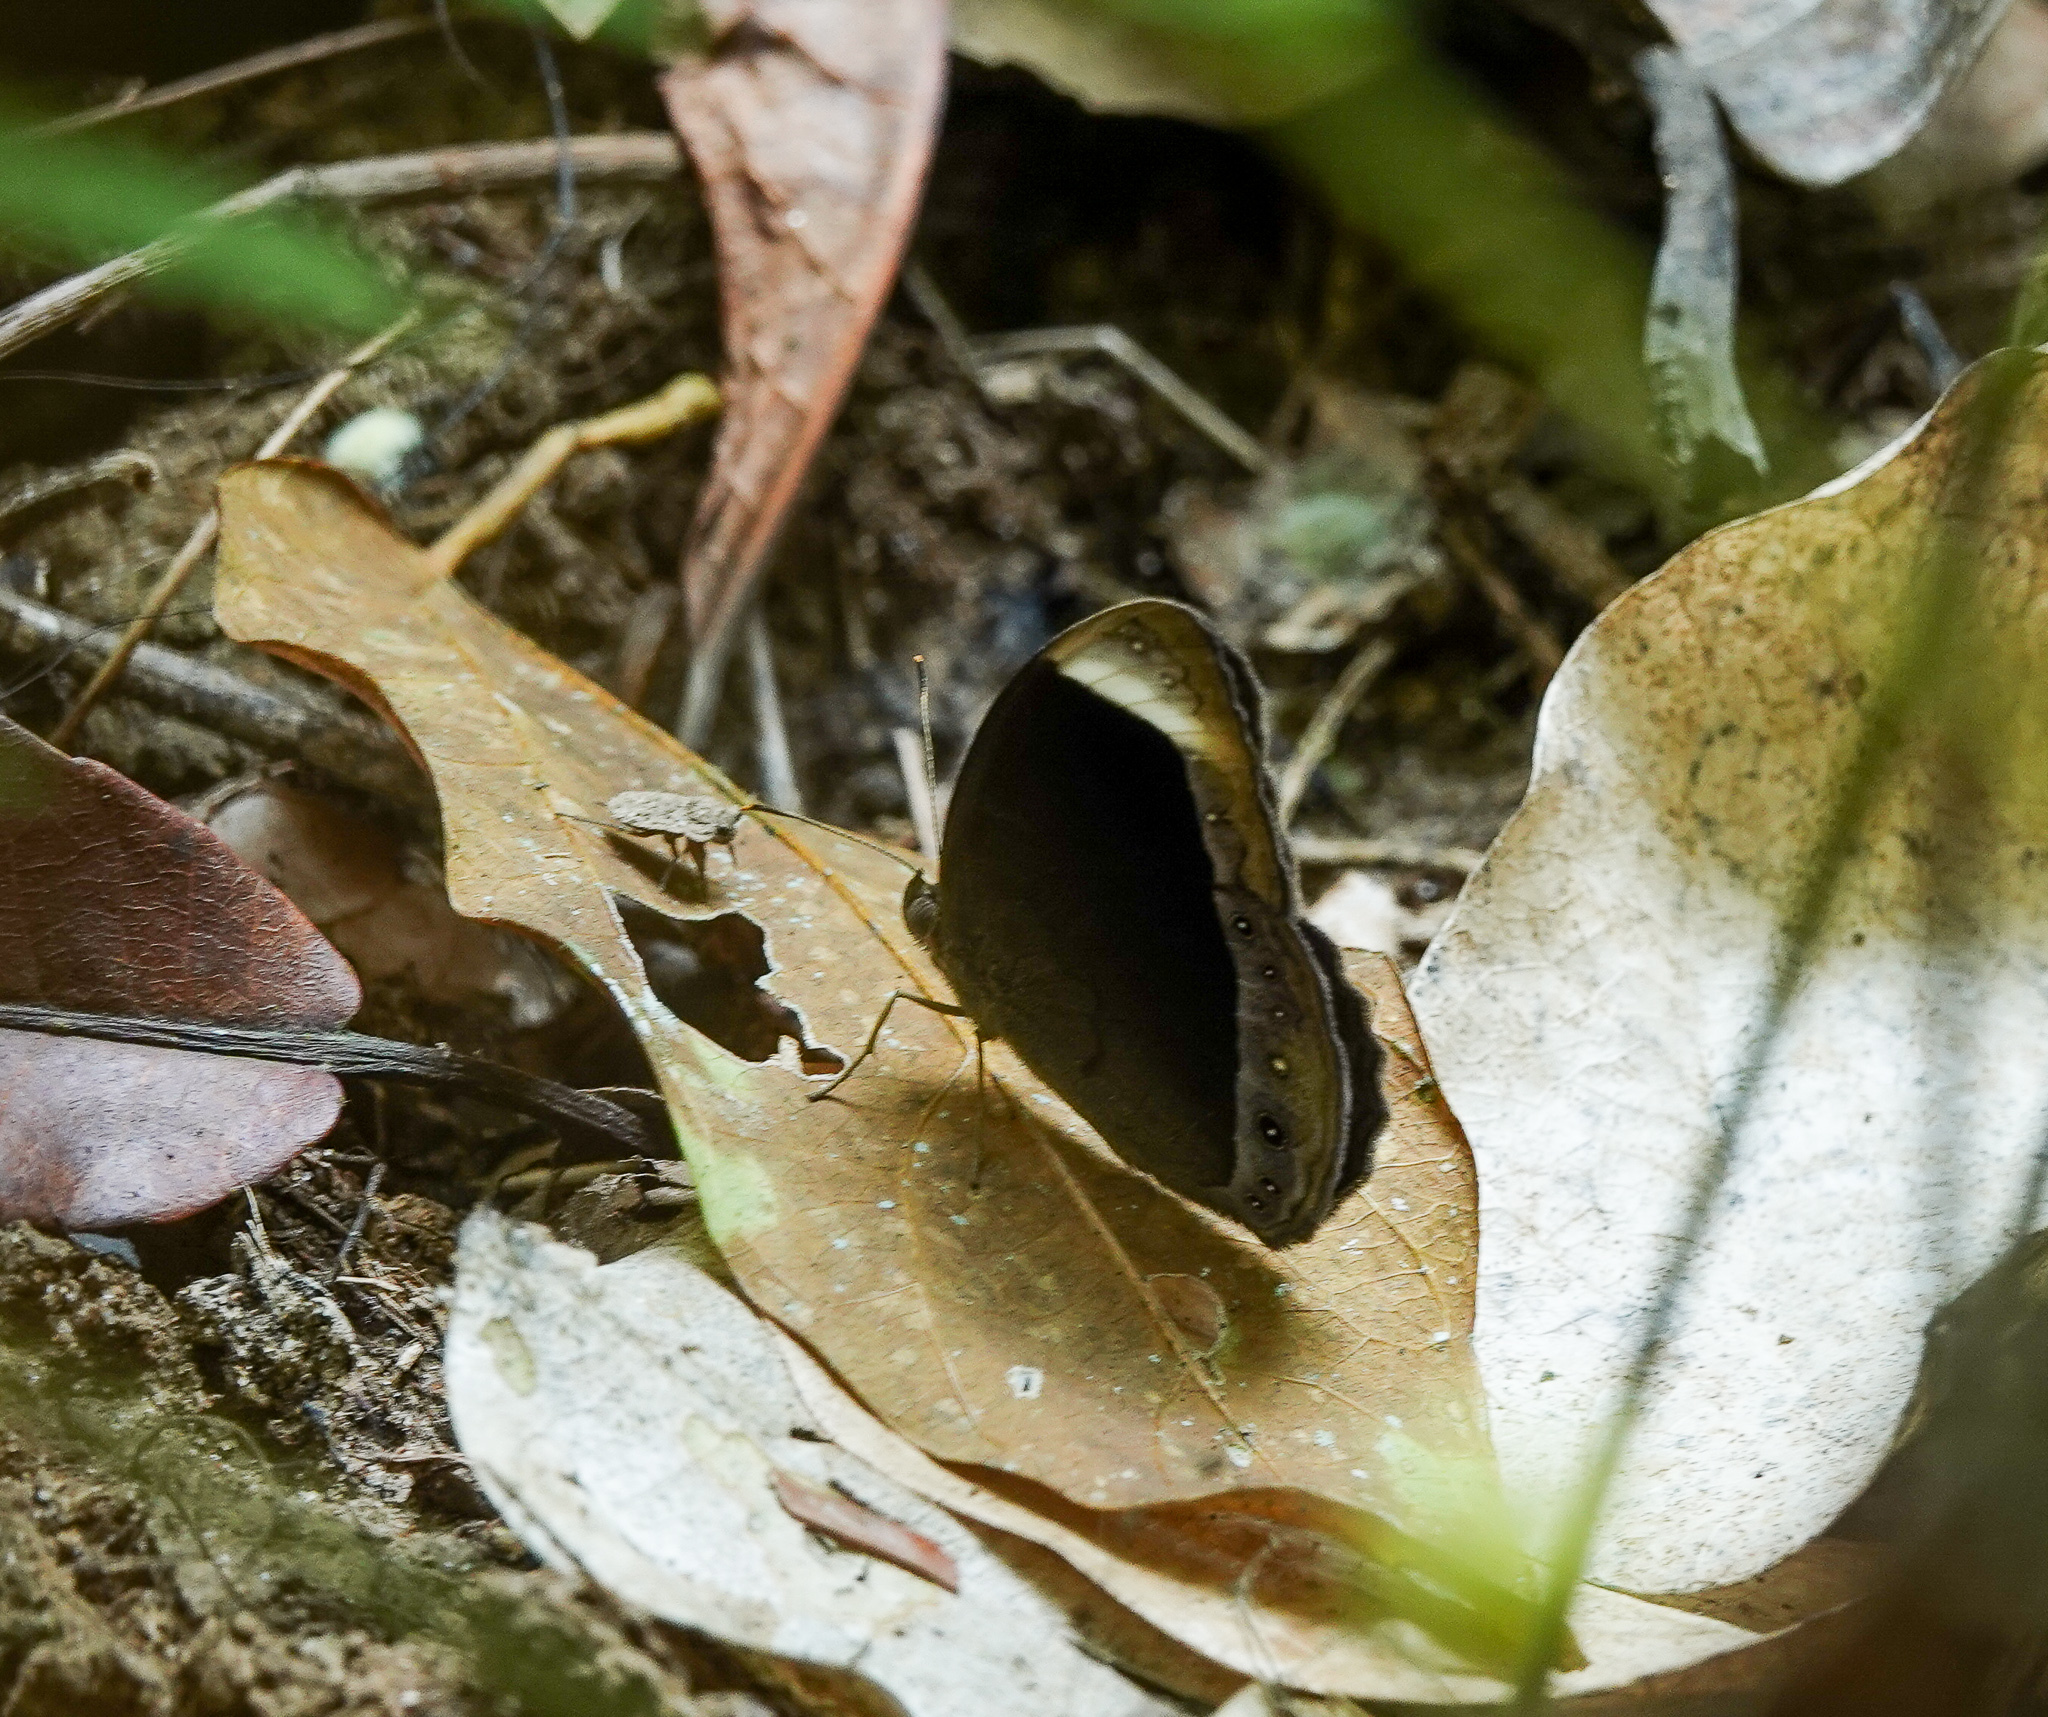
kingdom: Animalia
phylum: Arthropoda
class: Insecta
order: Lepidoptera
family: Nymphalidae
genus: Mycalesis
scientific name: Mycalesis anaxias
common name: White-bar bushbrown
